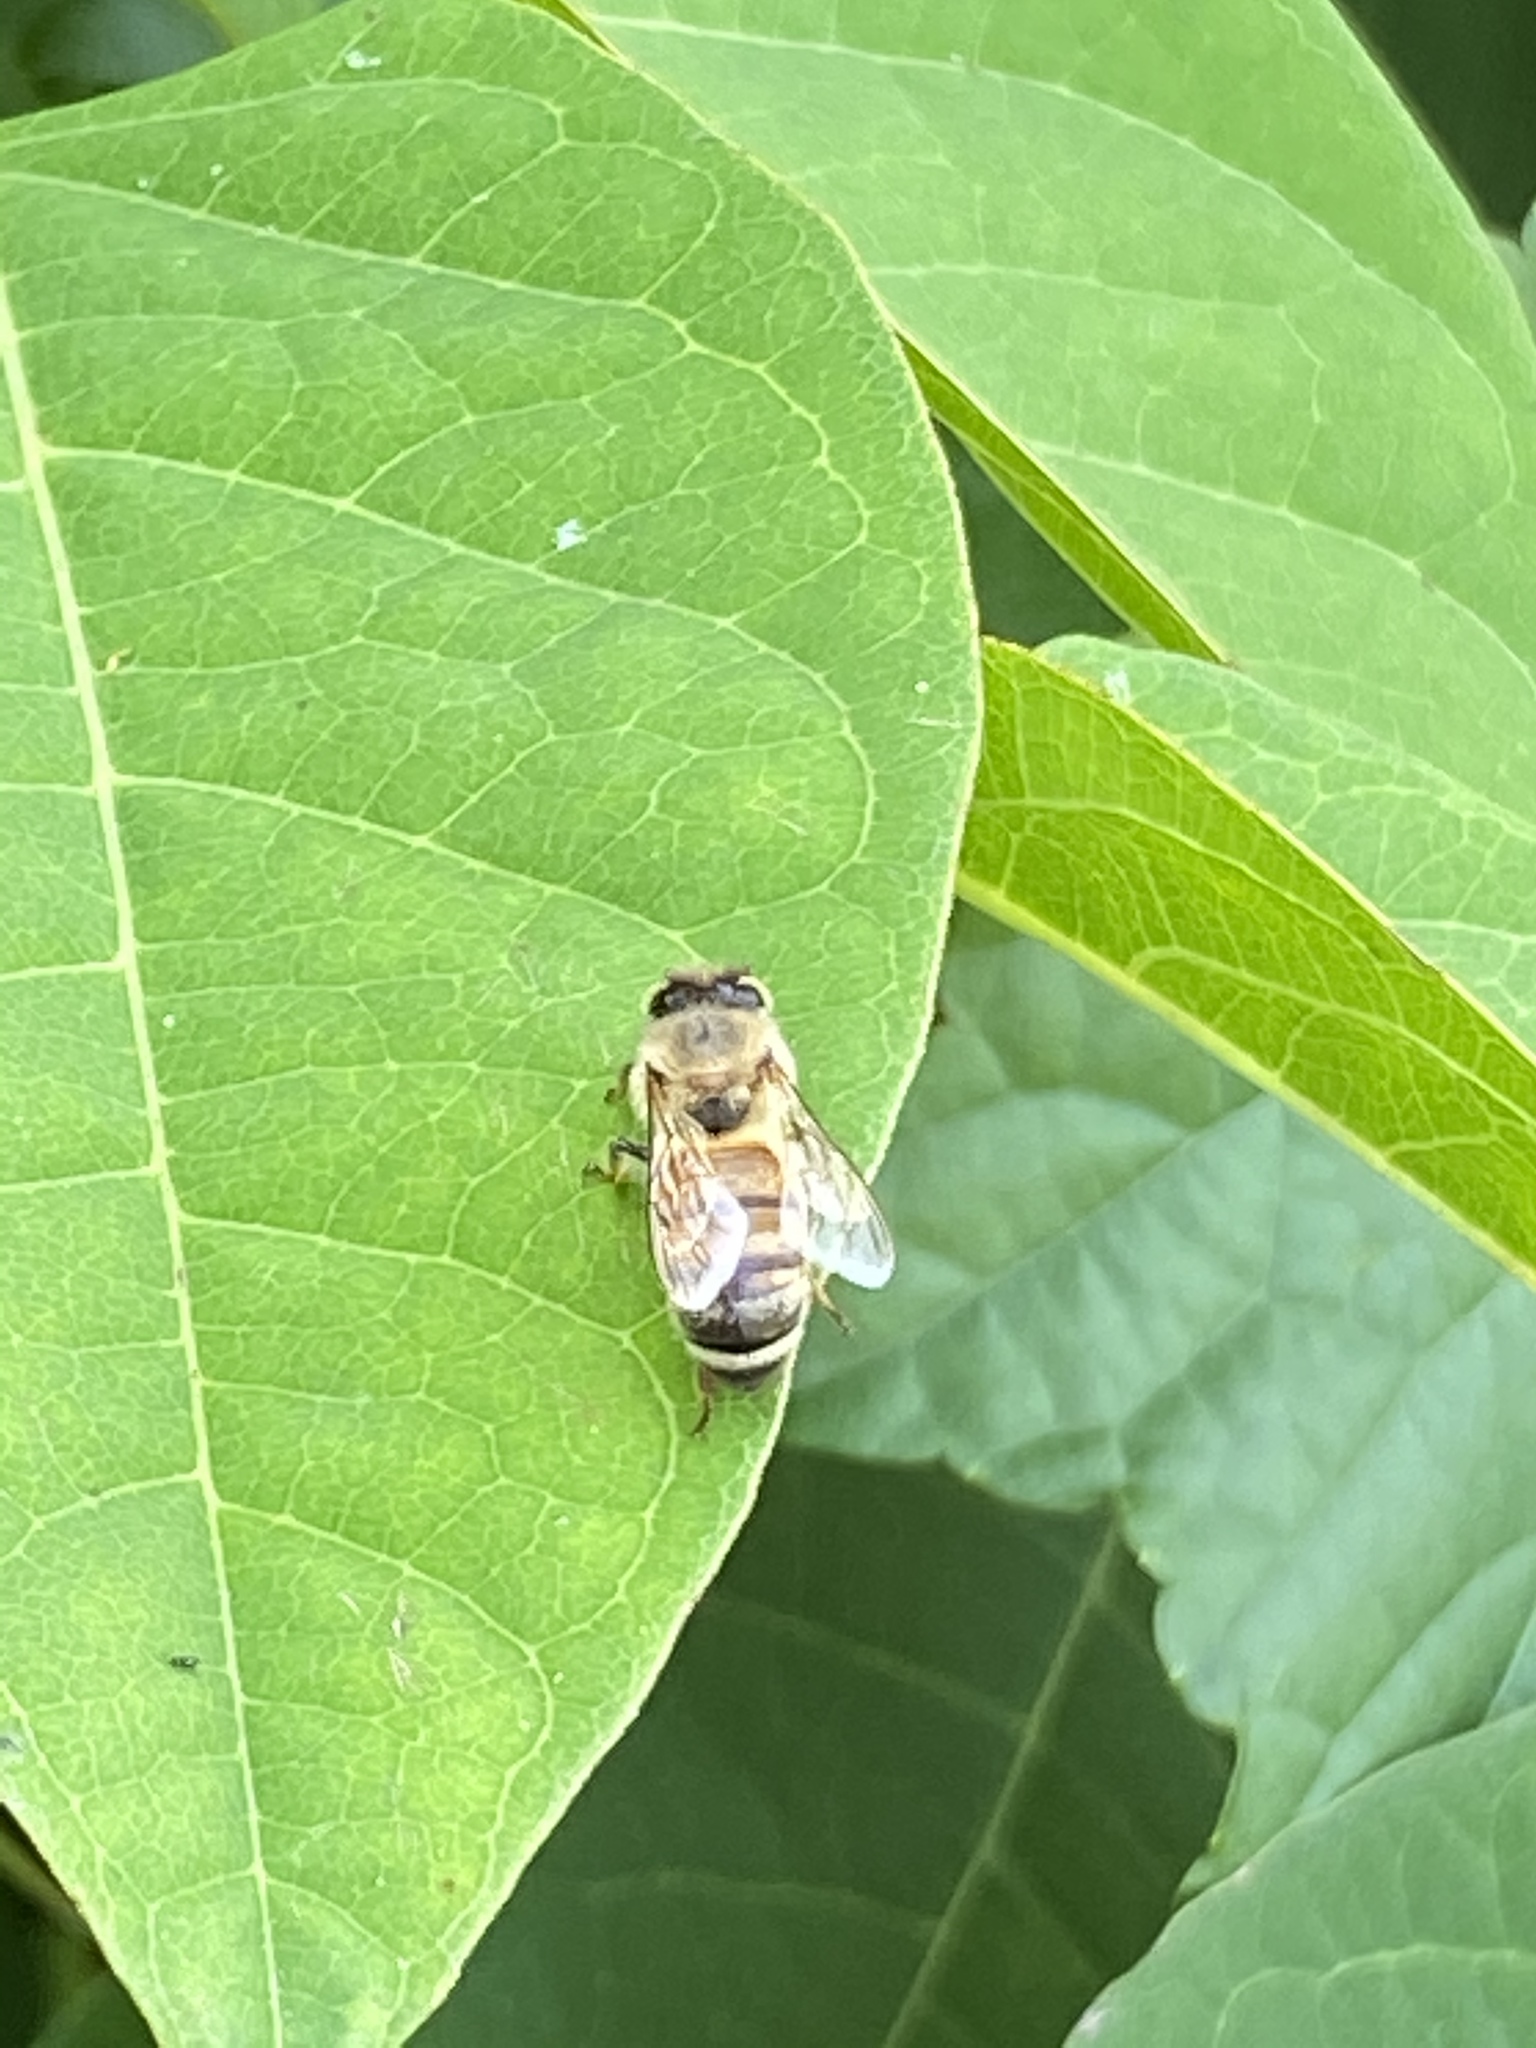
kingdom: Animalia
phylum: Arthropoda
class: Insecta
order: Hymenoptera
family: Apidae
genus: Apis
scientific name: Apis mellifera
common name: Honey bee
